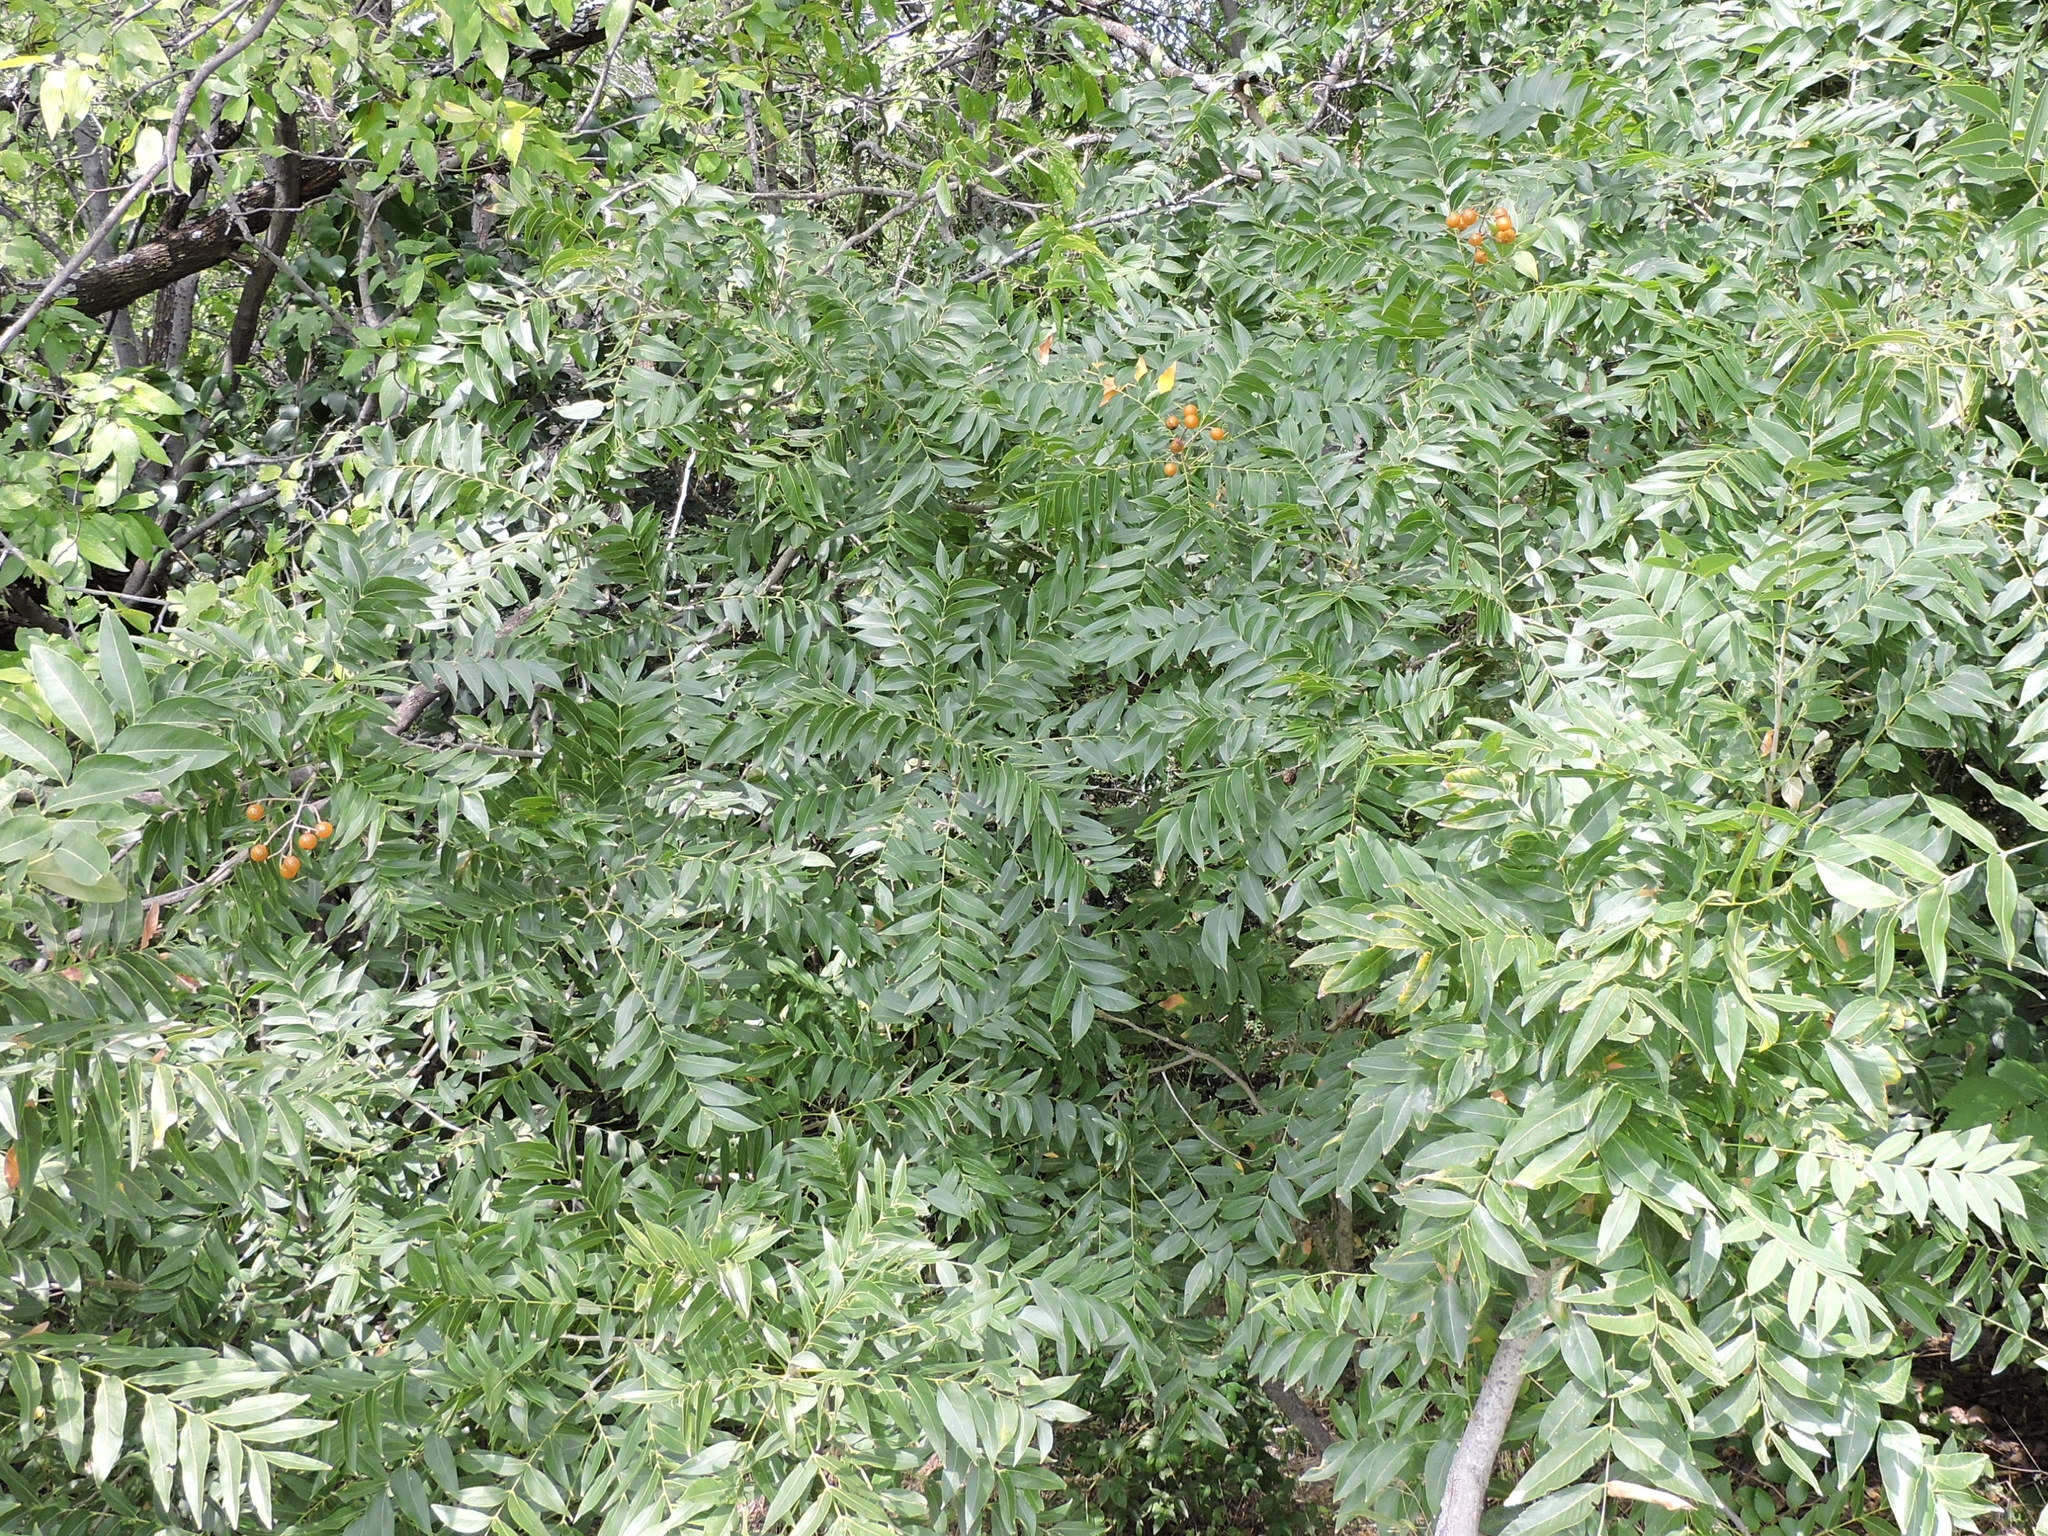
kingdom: Plantae
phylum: Tracheophyta
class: Magnoliopsida
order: Sapindales
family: Sapindaceae
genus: Sapindus
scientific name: Sapindus drummondii
